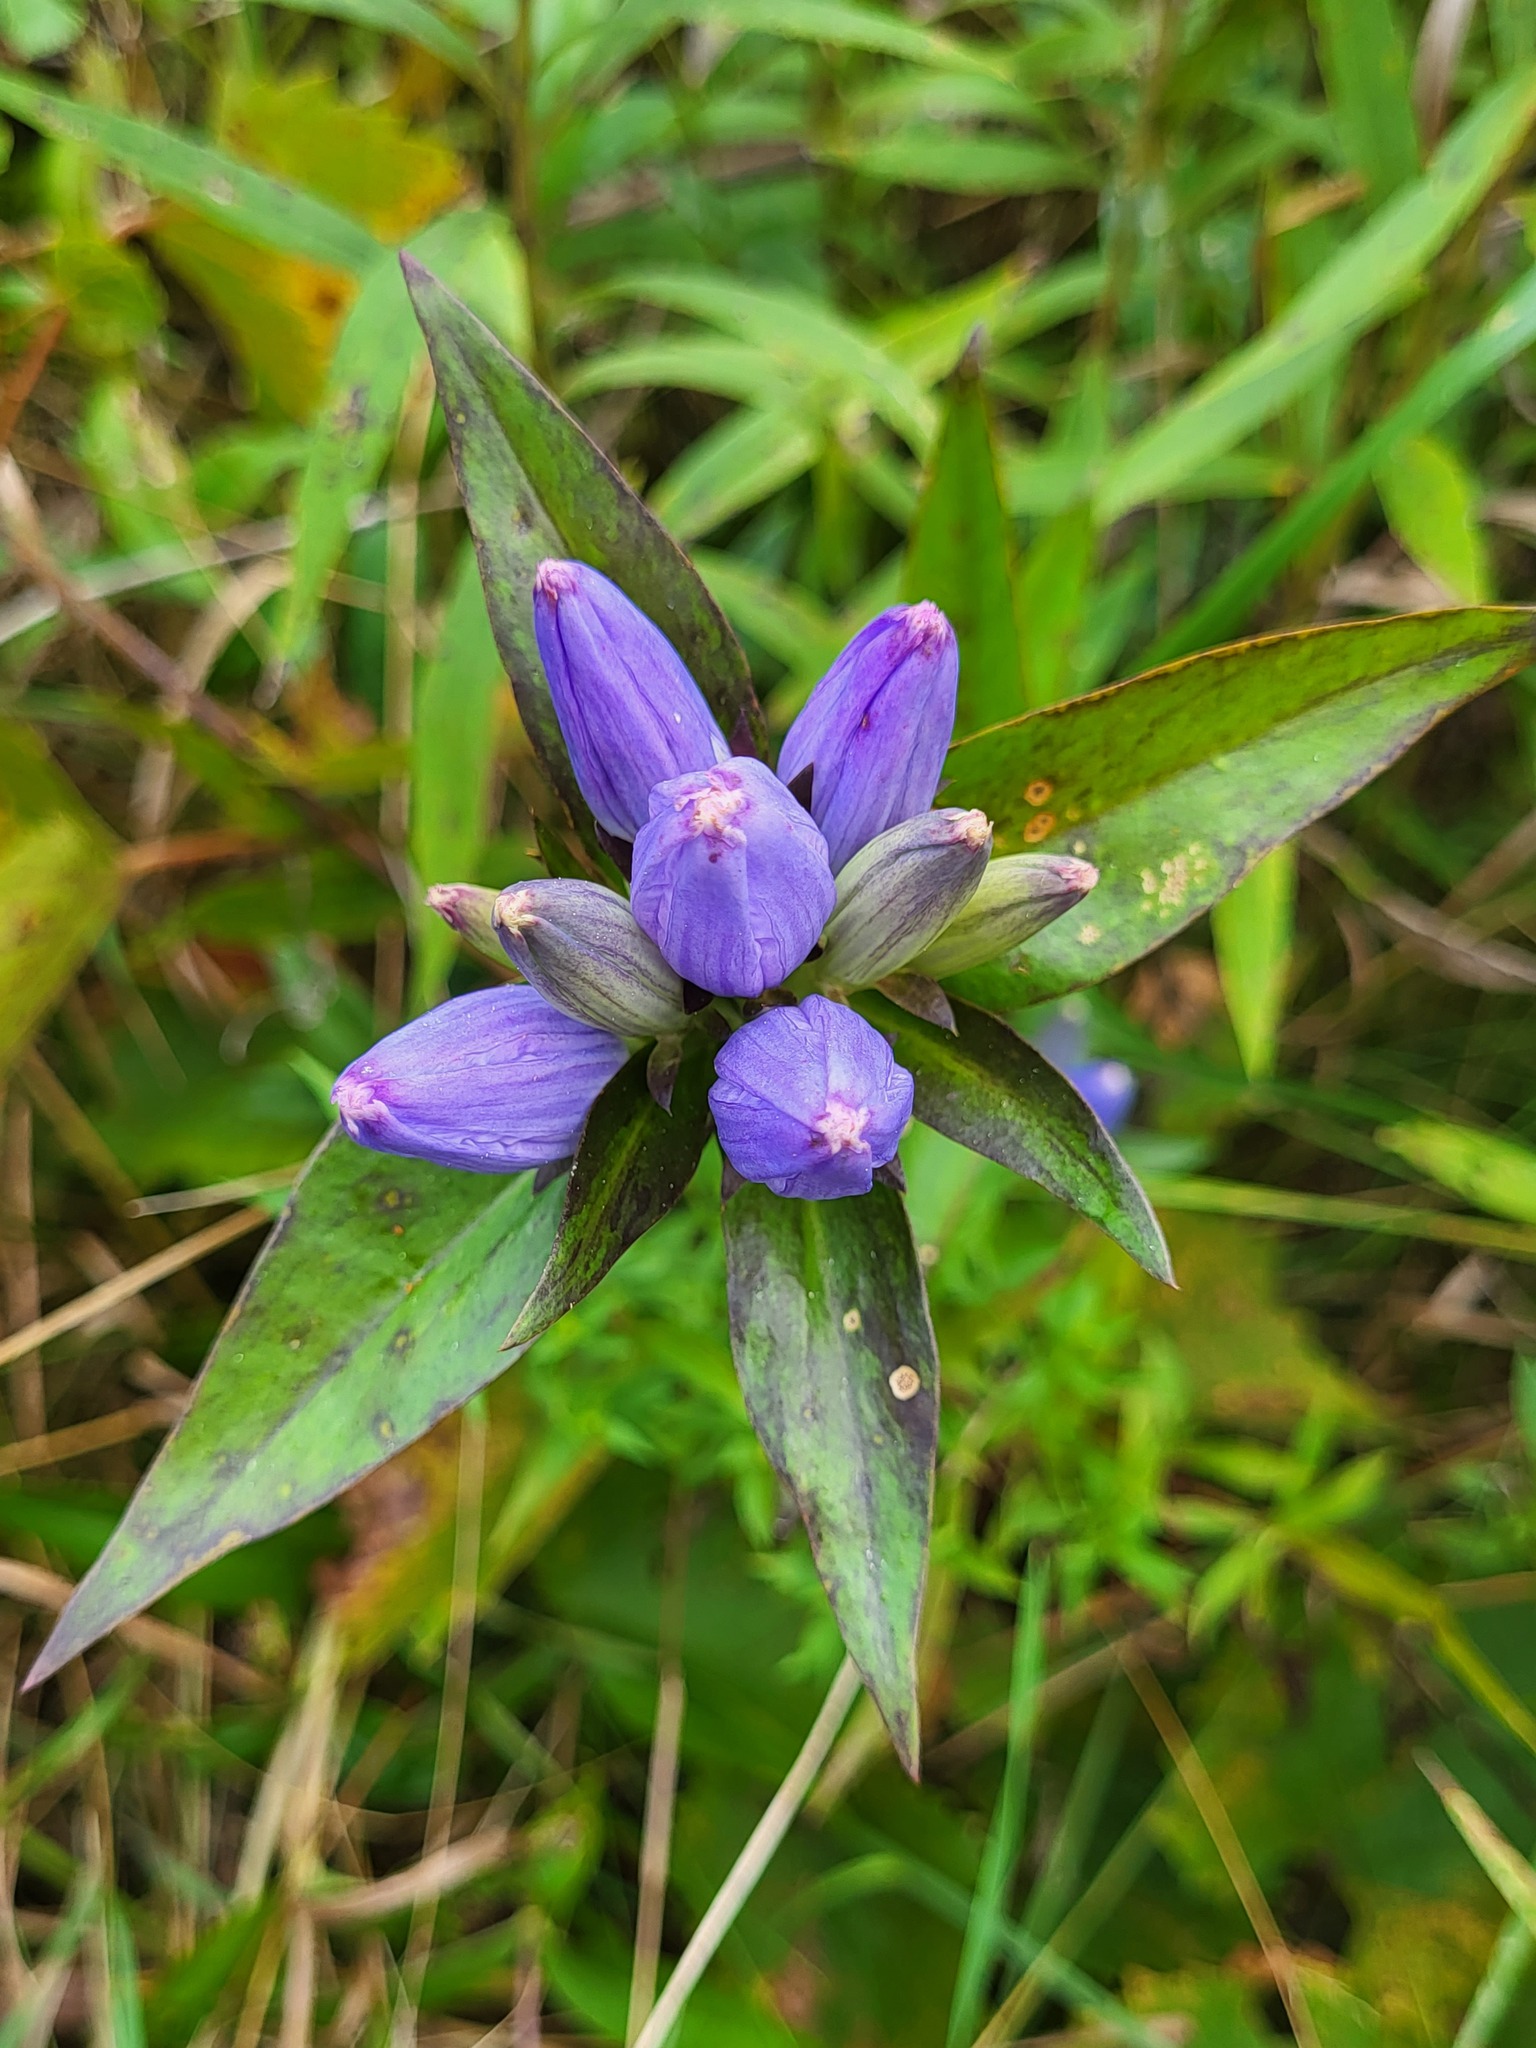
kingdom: Plantae
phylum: Tracheophyta
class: Magnoliopsida
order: Gentianales
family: Gentianaceae
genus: Gentiana
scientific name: Gentiana andrewsii
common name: Bottle gentian
